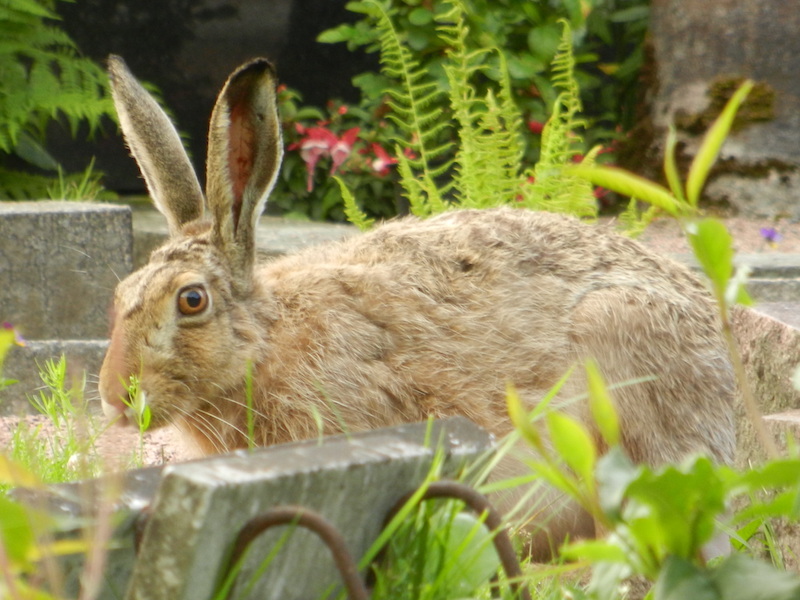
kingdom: Animalia
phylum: Chordata
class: Mammalia
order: Lagomorpha
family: Leporidae
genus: Lepus
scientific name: Lepus europaeus
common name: European hare
